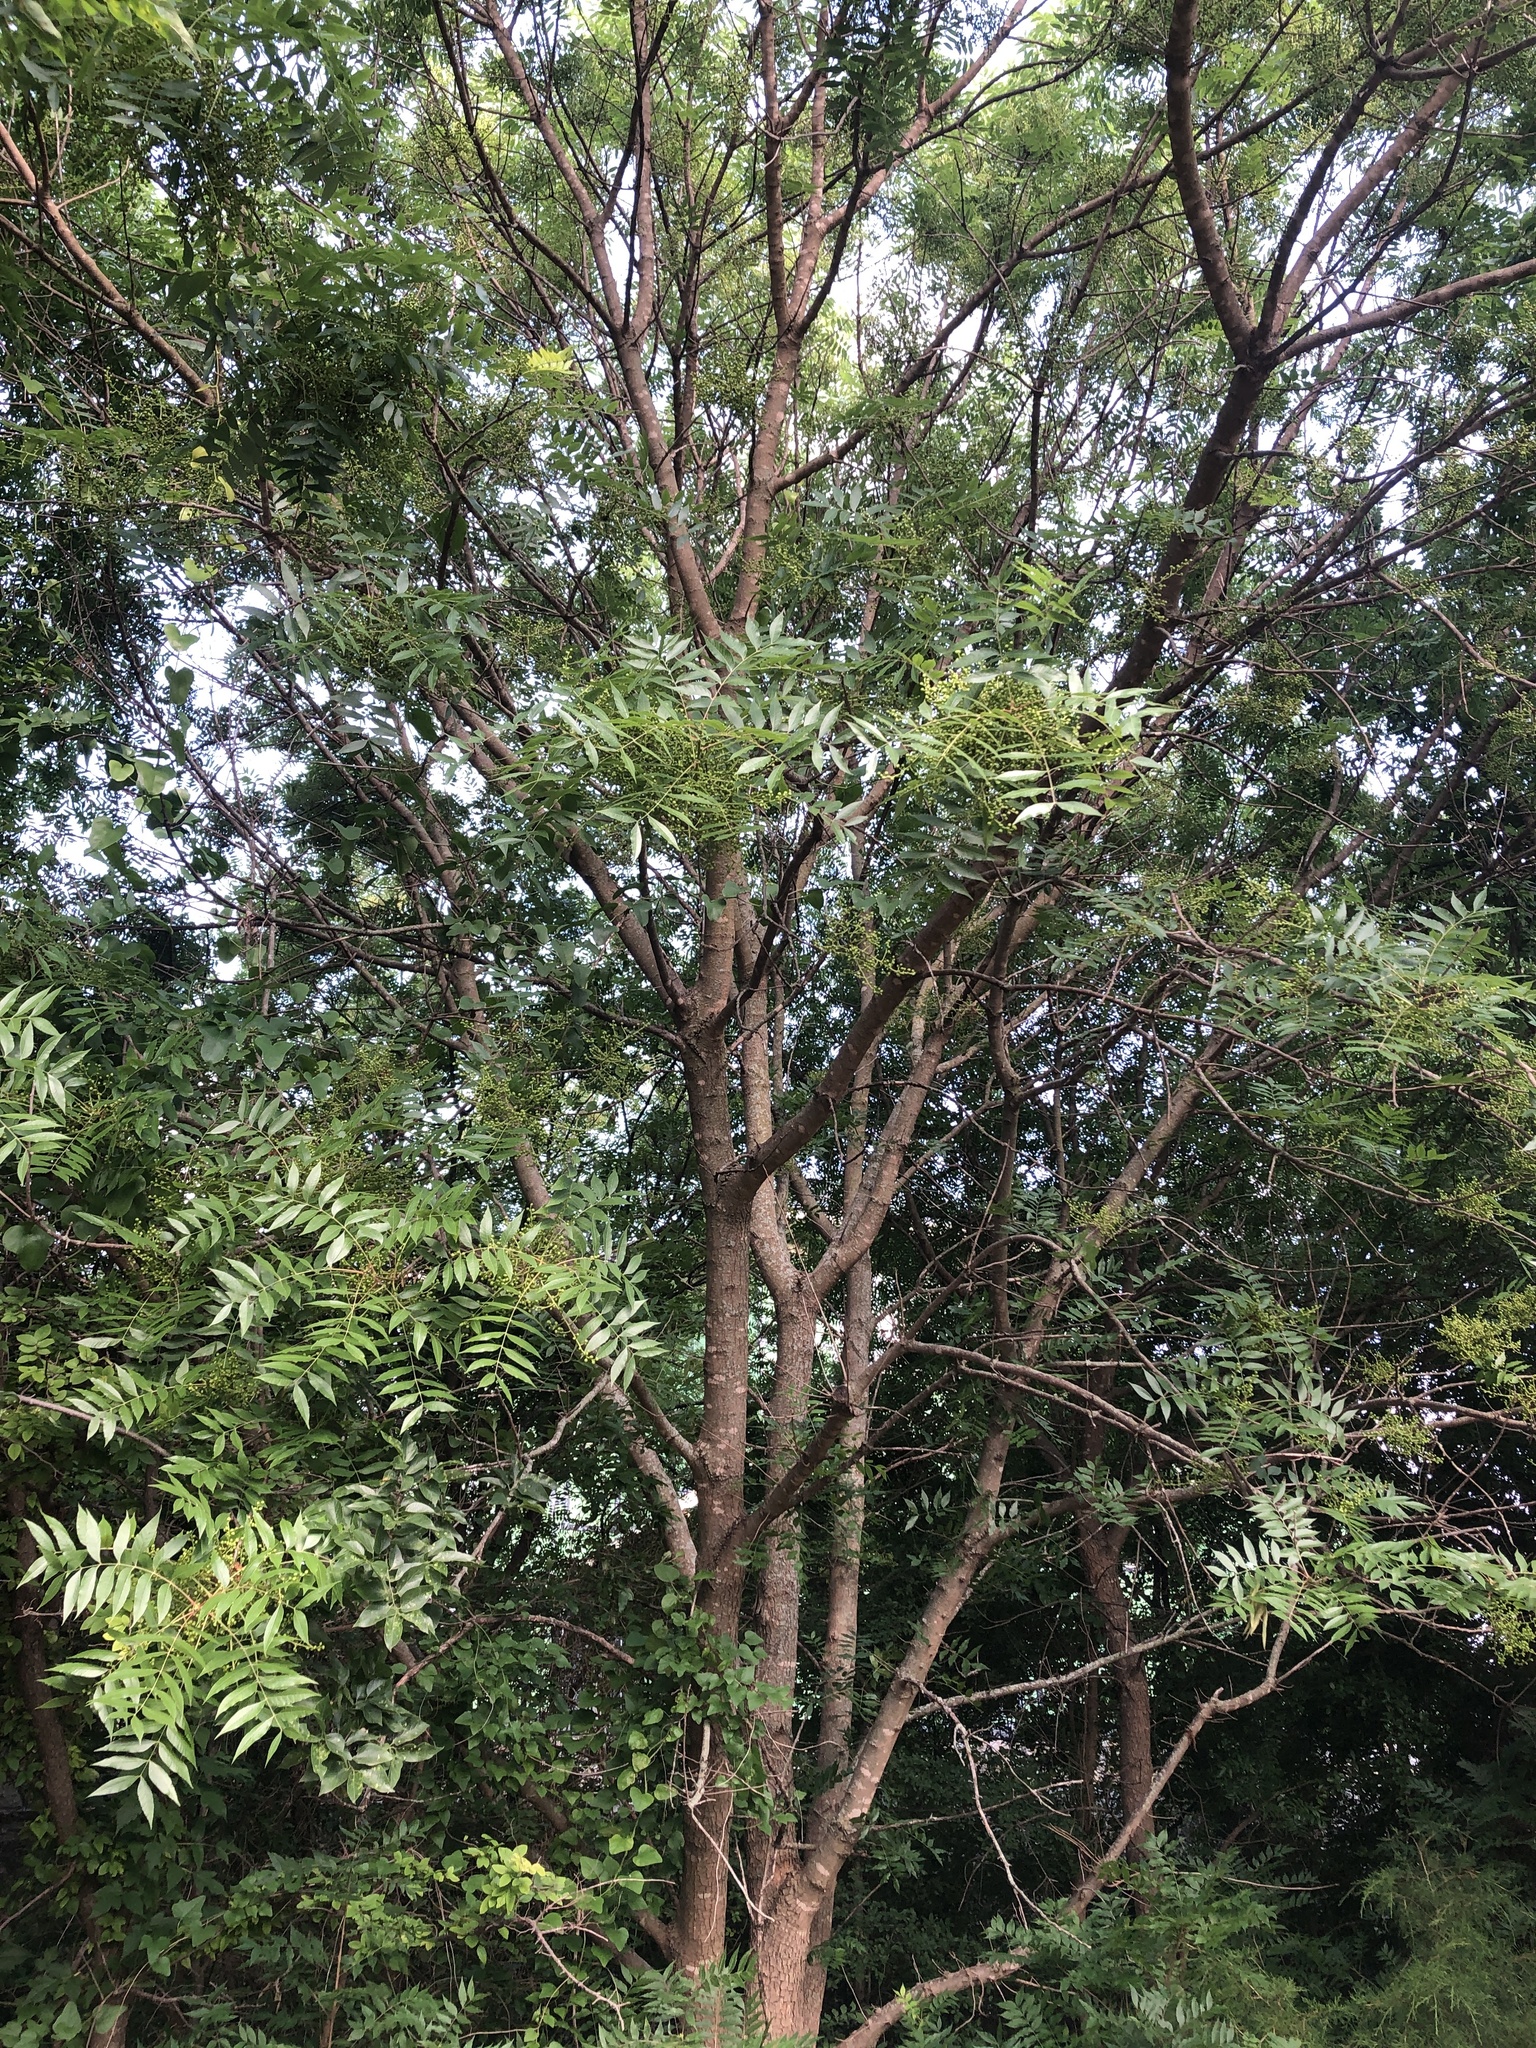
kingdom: Plantae
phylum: Tracheophyta
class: Magnoliopsida
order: Sapindales
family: Anacardiaceae
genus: Pistacia
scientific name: Pistacia chinensis
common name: Chinese pistache
